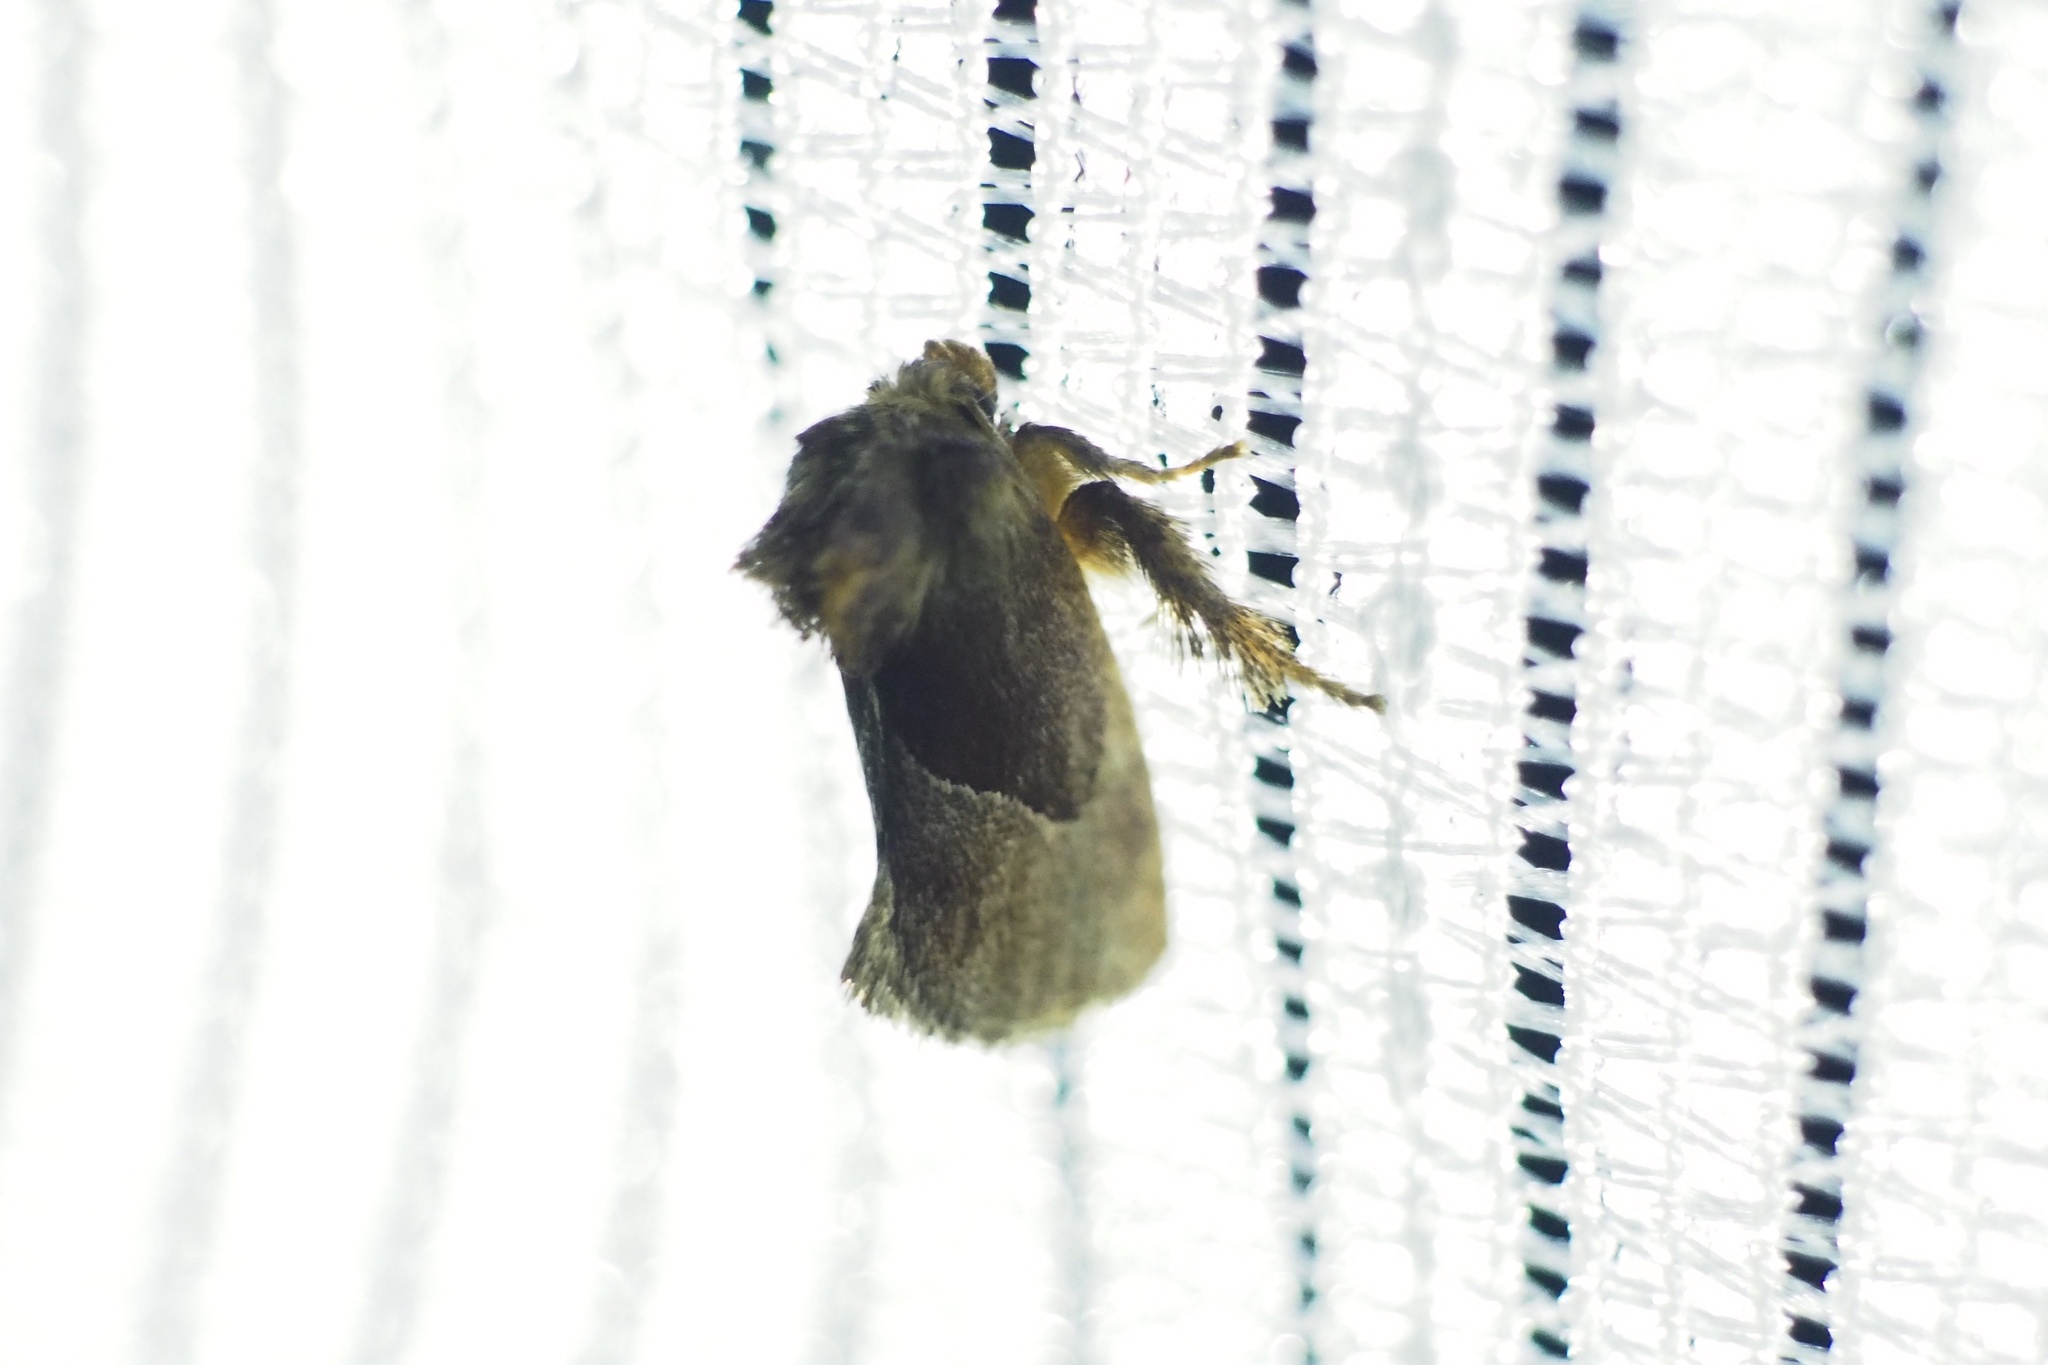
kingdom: Animalia
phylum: Arthropoda
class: Insecta
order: Lepidoptera
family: Limacodidae
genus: Phrixolepia
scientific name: Phrixolepia sericea
